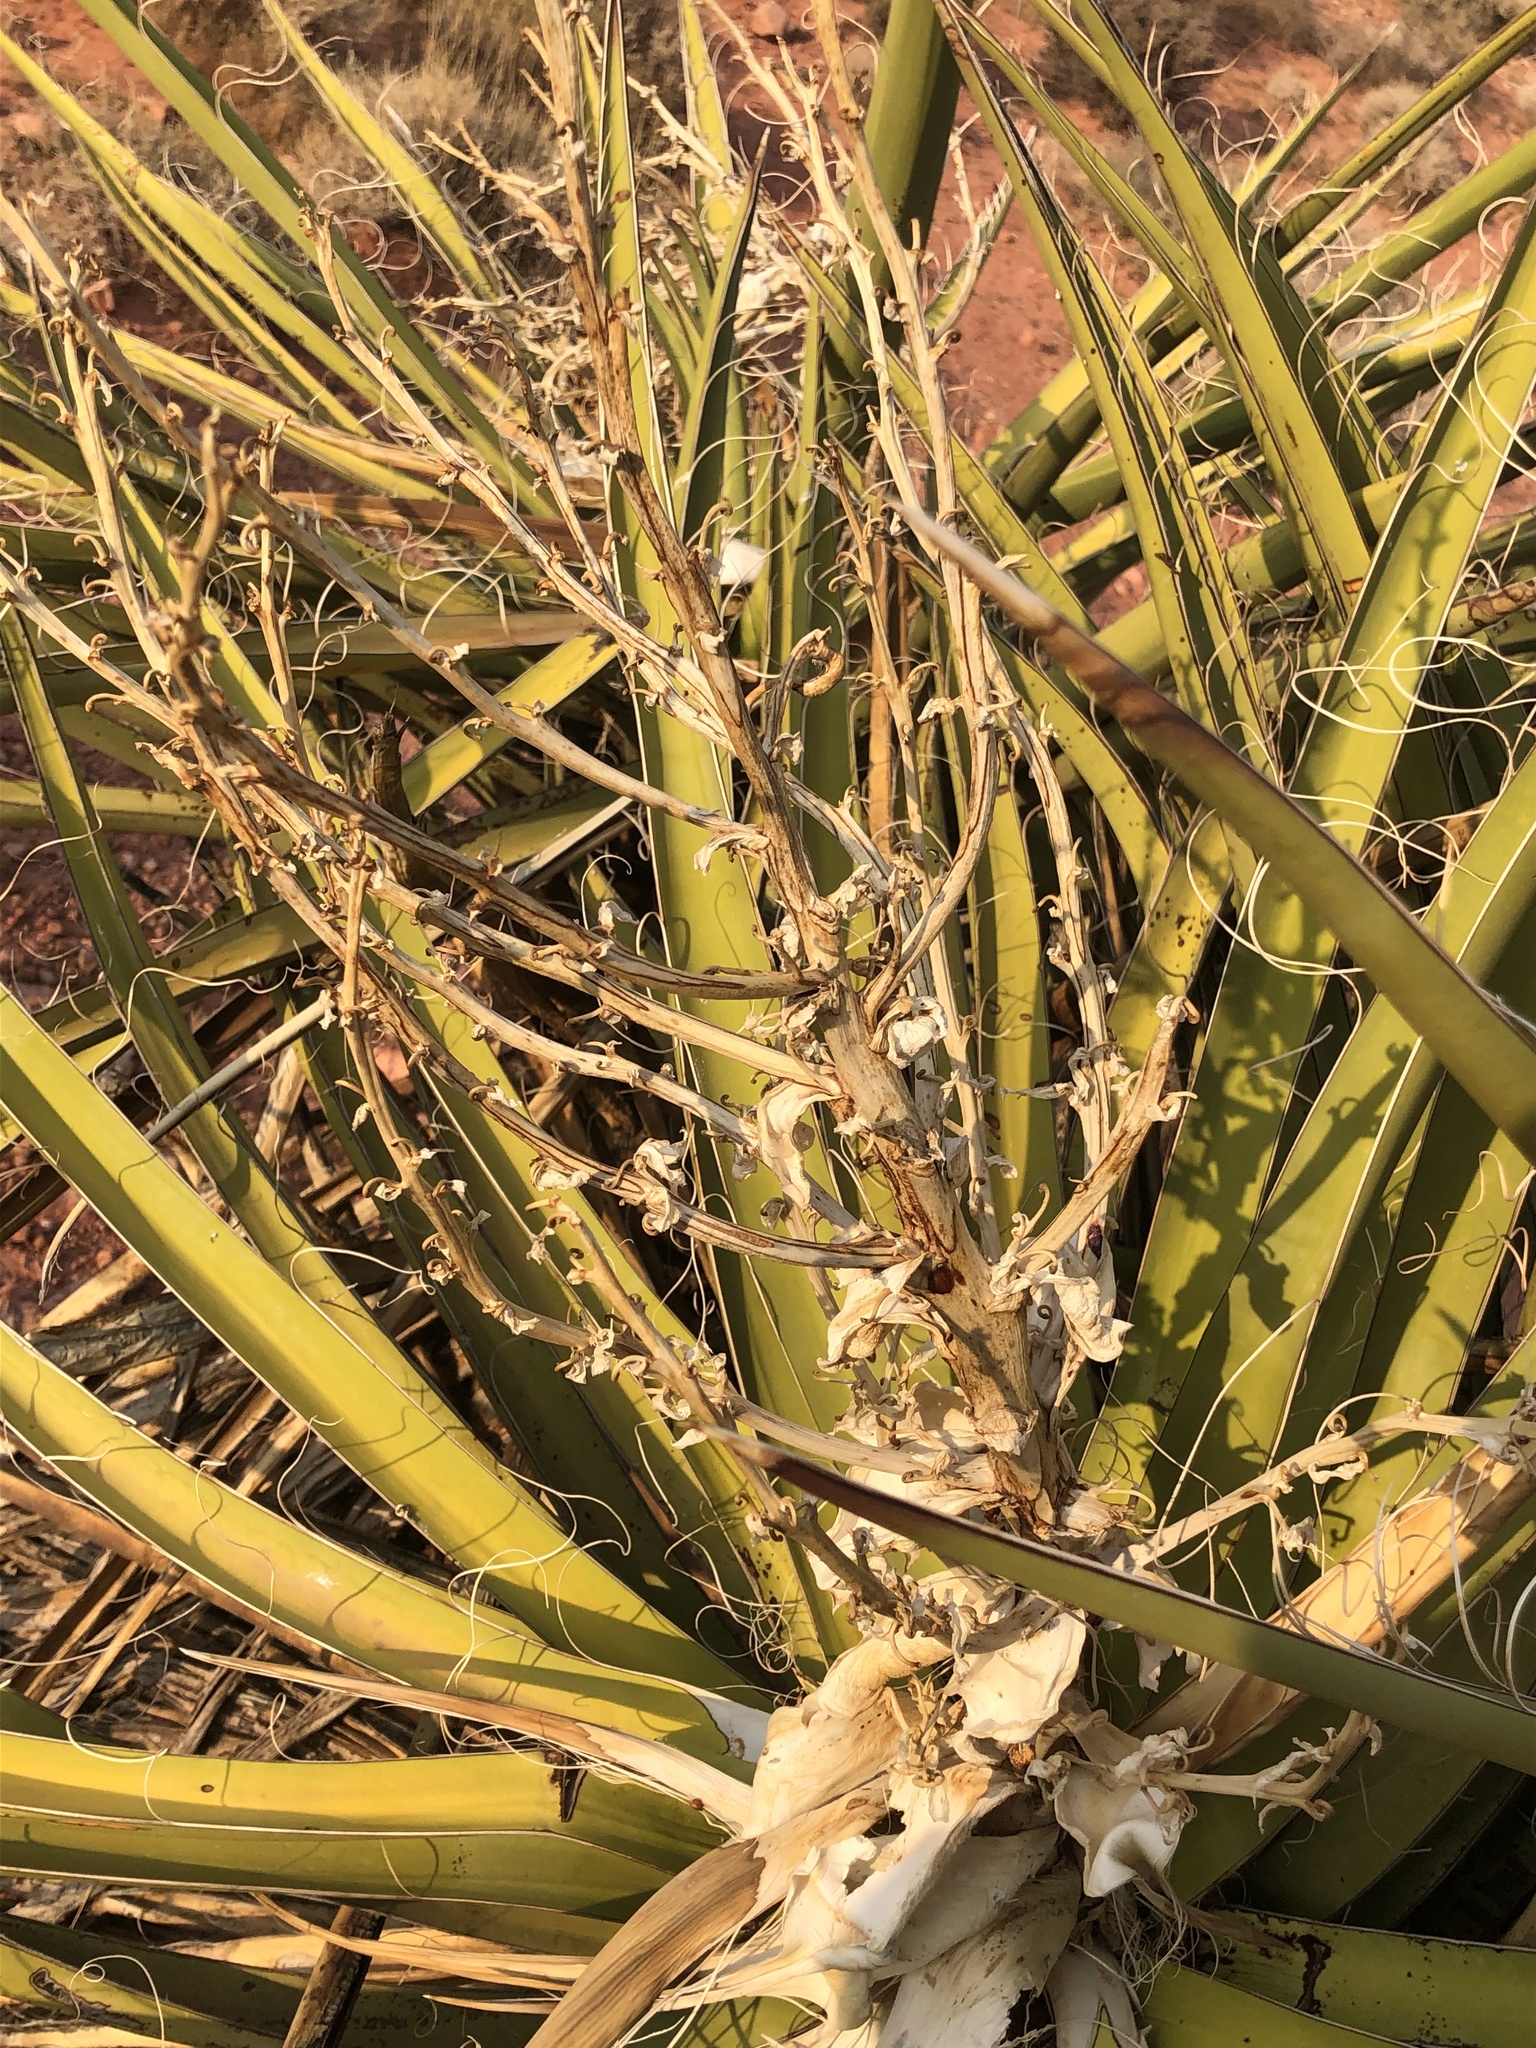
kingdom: Plantae
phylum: Tracheophyta
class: Liliopsida
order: Asparagales
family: Asparagaceae
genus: Yucca
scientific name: Yucca schidigera
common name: Mojave yucca
